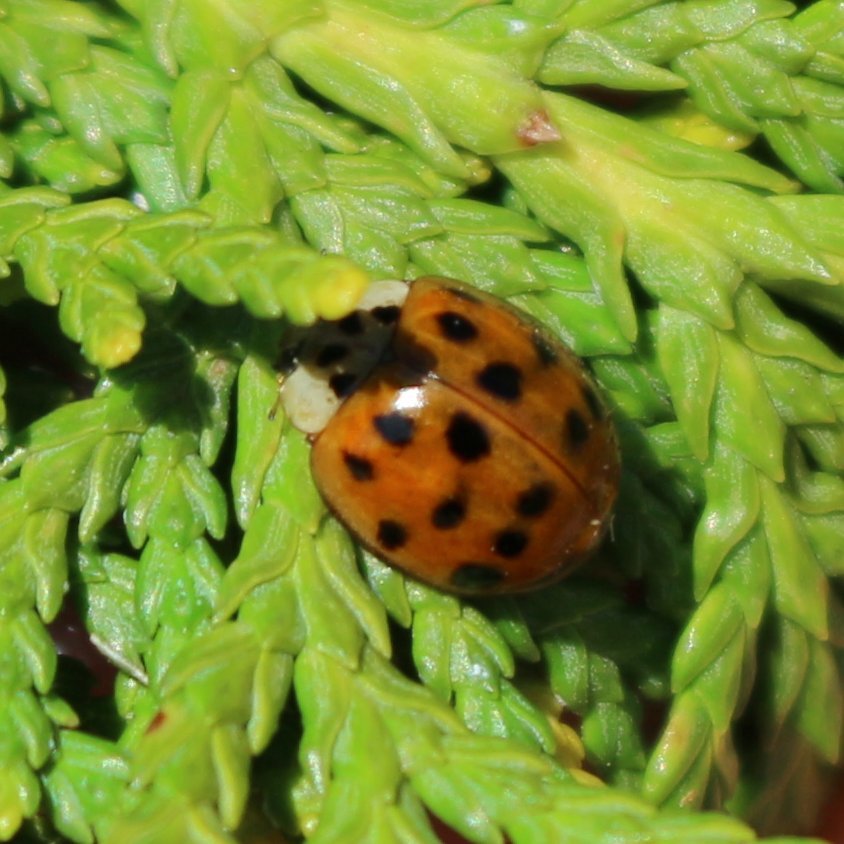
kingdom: Animalia
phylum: Arthropoda
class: Insecta
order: Coleoptera
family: Coccinellidae
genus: Harmonia
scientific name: Harmonia axyridis
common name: Harlequin ladybird
